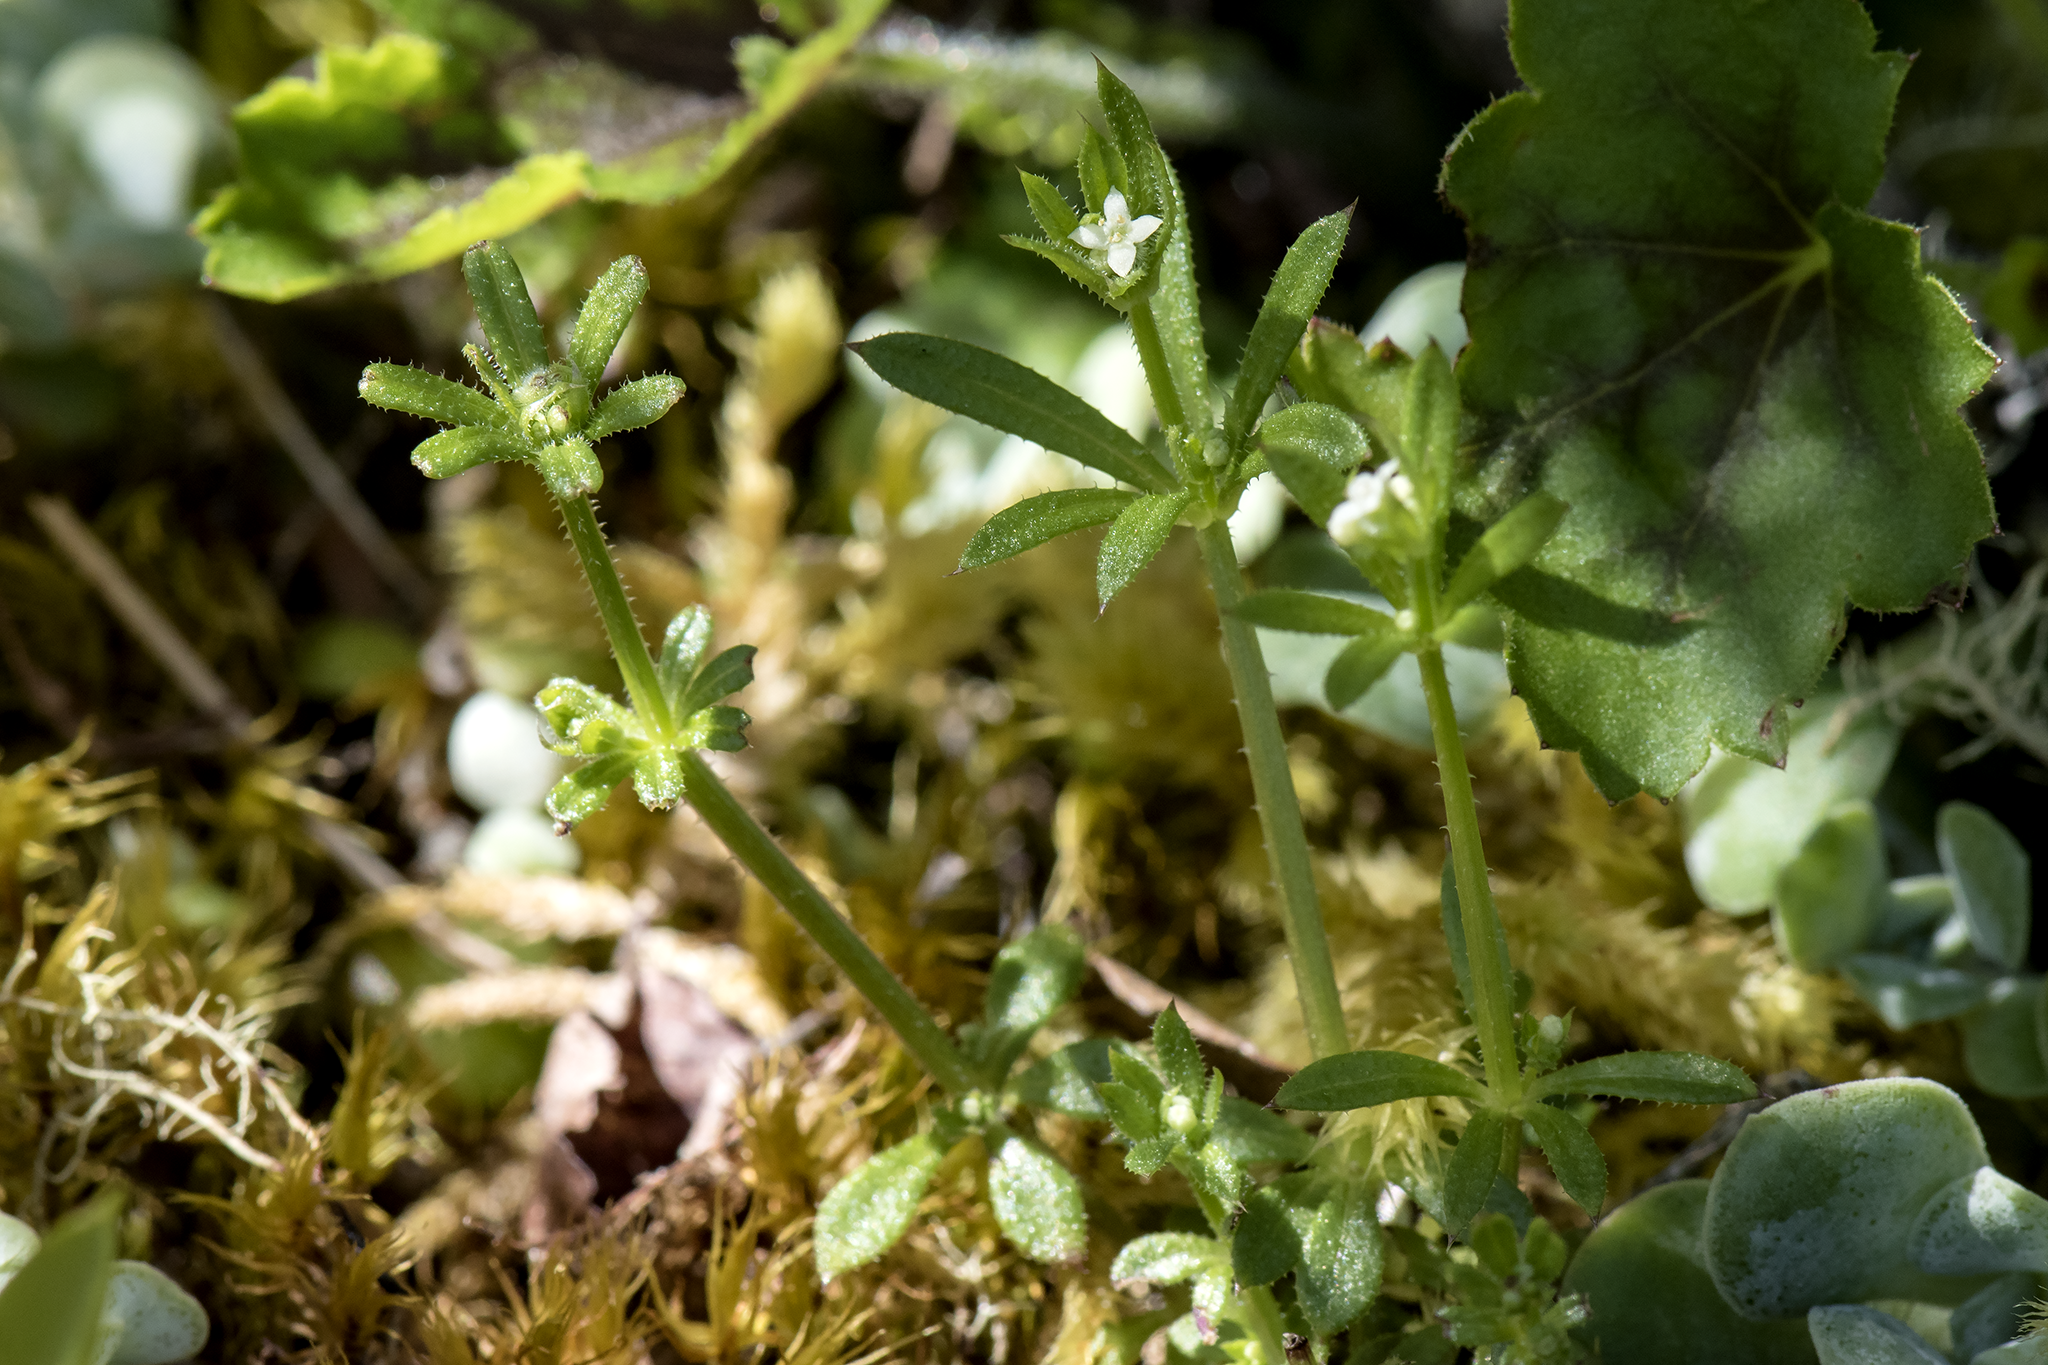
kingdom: Plantae
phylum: Tracheophyta
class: Magnoliopsida
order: Gentianales
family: Rubiaceae
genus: Galium
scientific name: Galium aparine
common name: Cleavers
